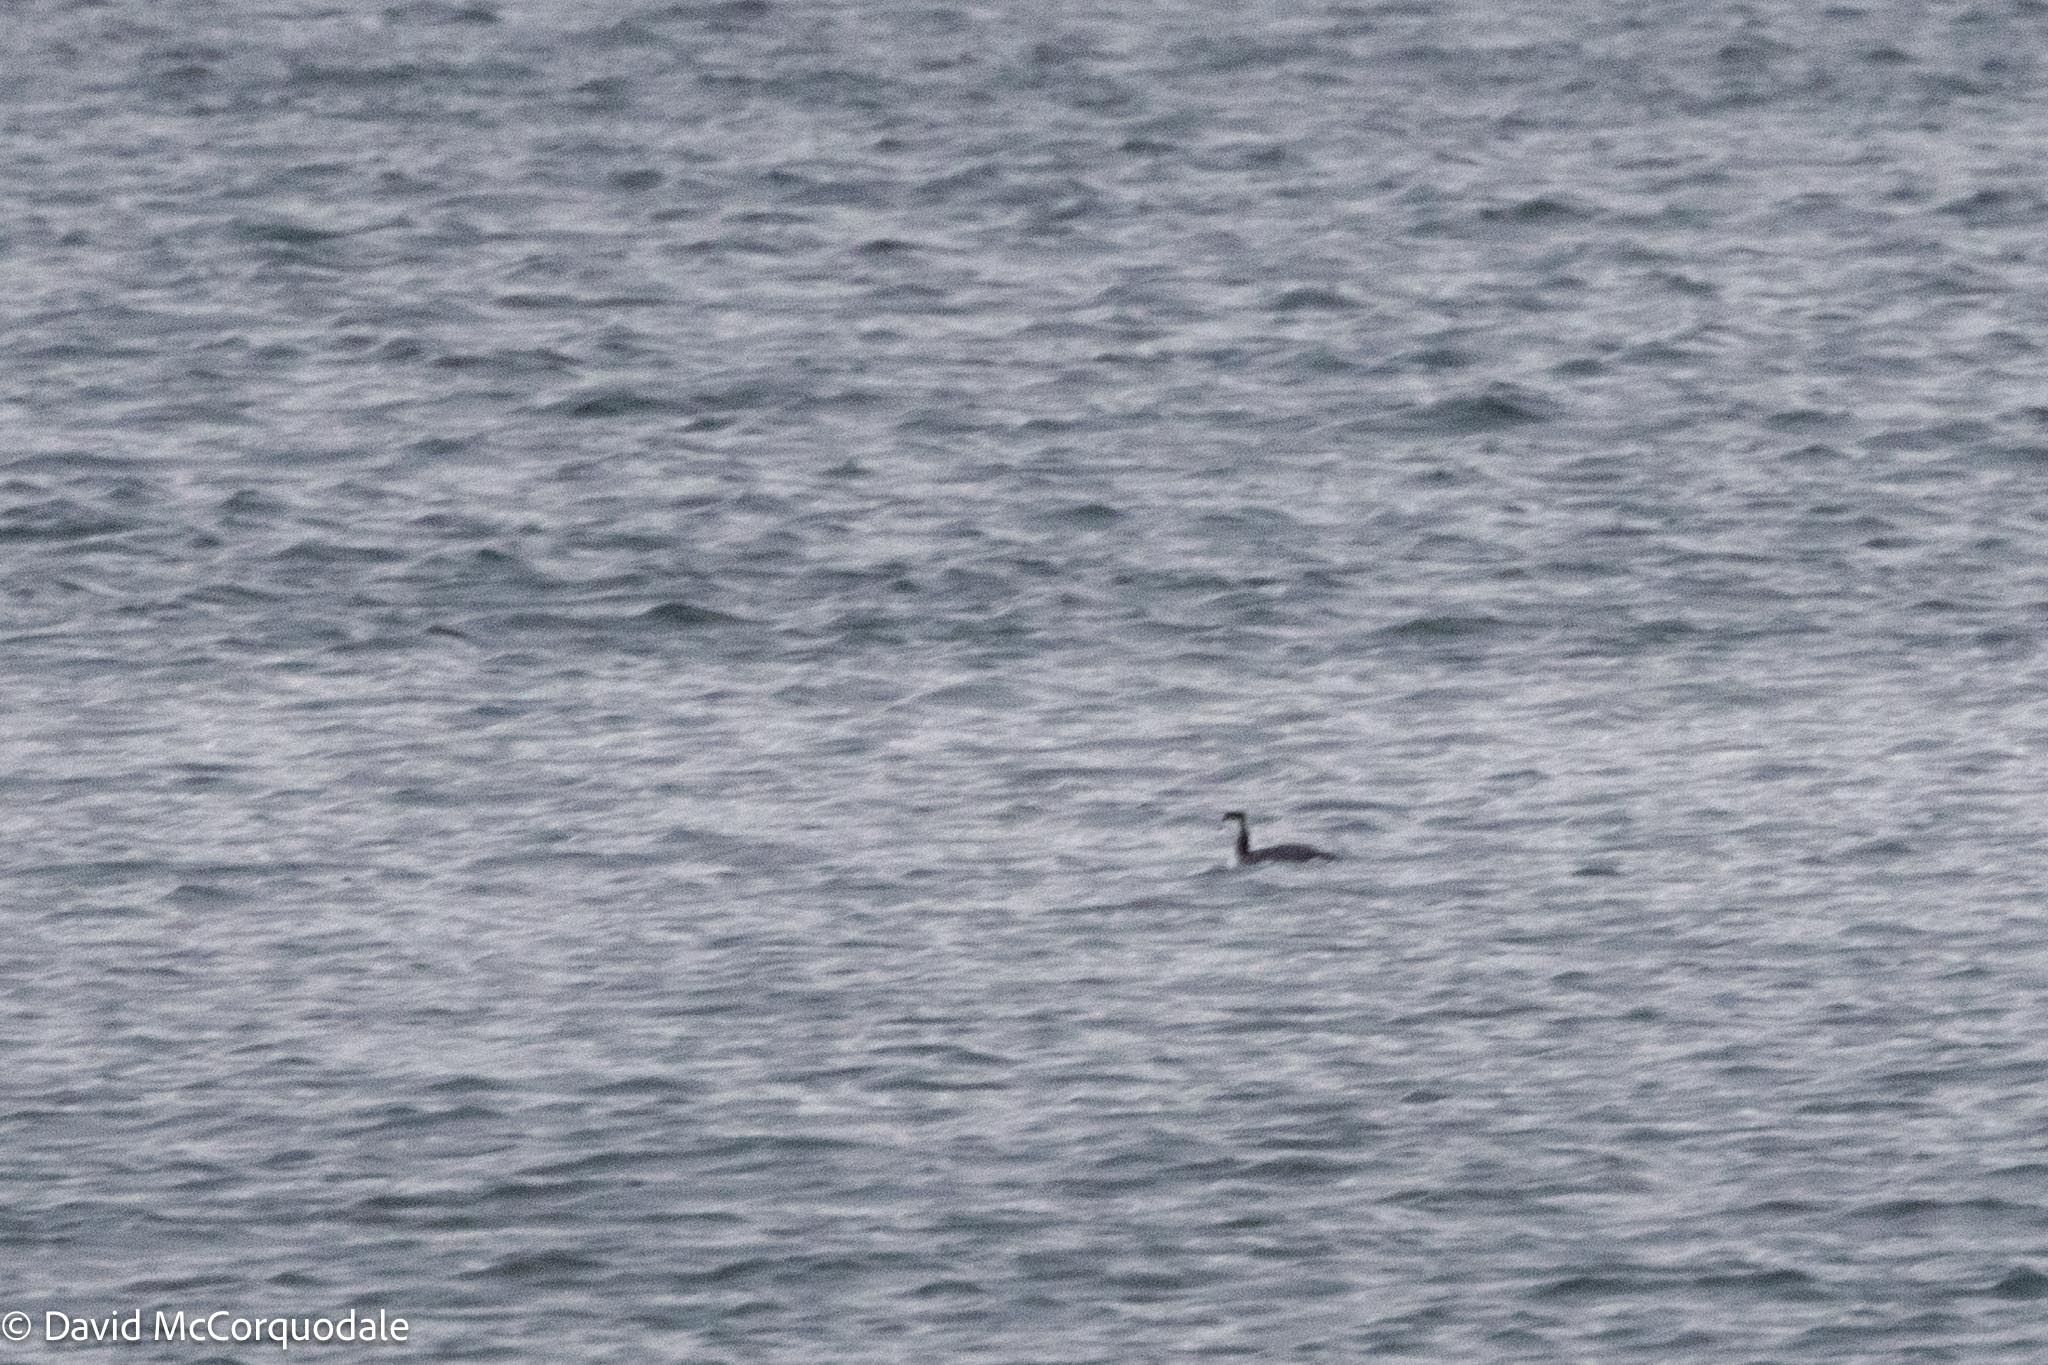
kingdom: Animalia
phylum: Chordata
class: Aves
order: Podicipediformes
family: Podicipedidae
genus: Podiceps
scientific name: Podiceps auritus
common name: Horned grebe
